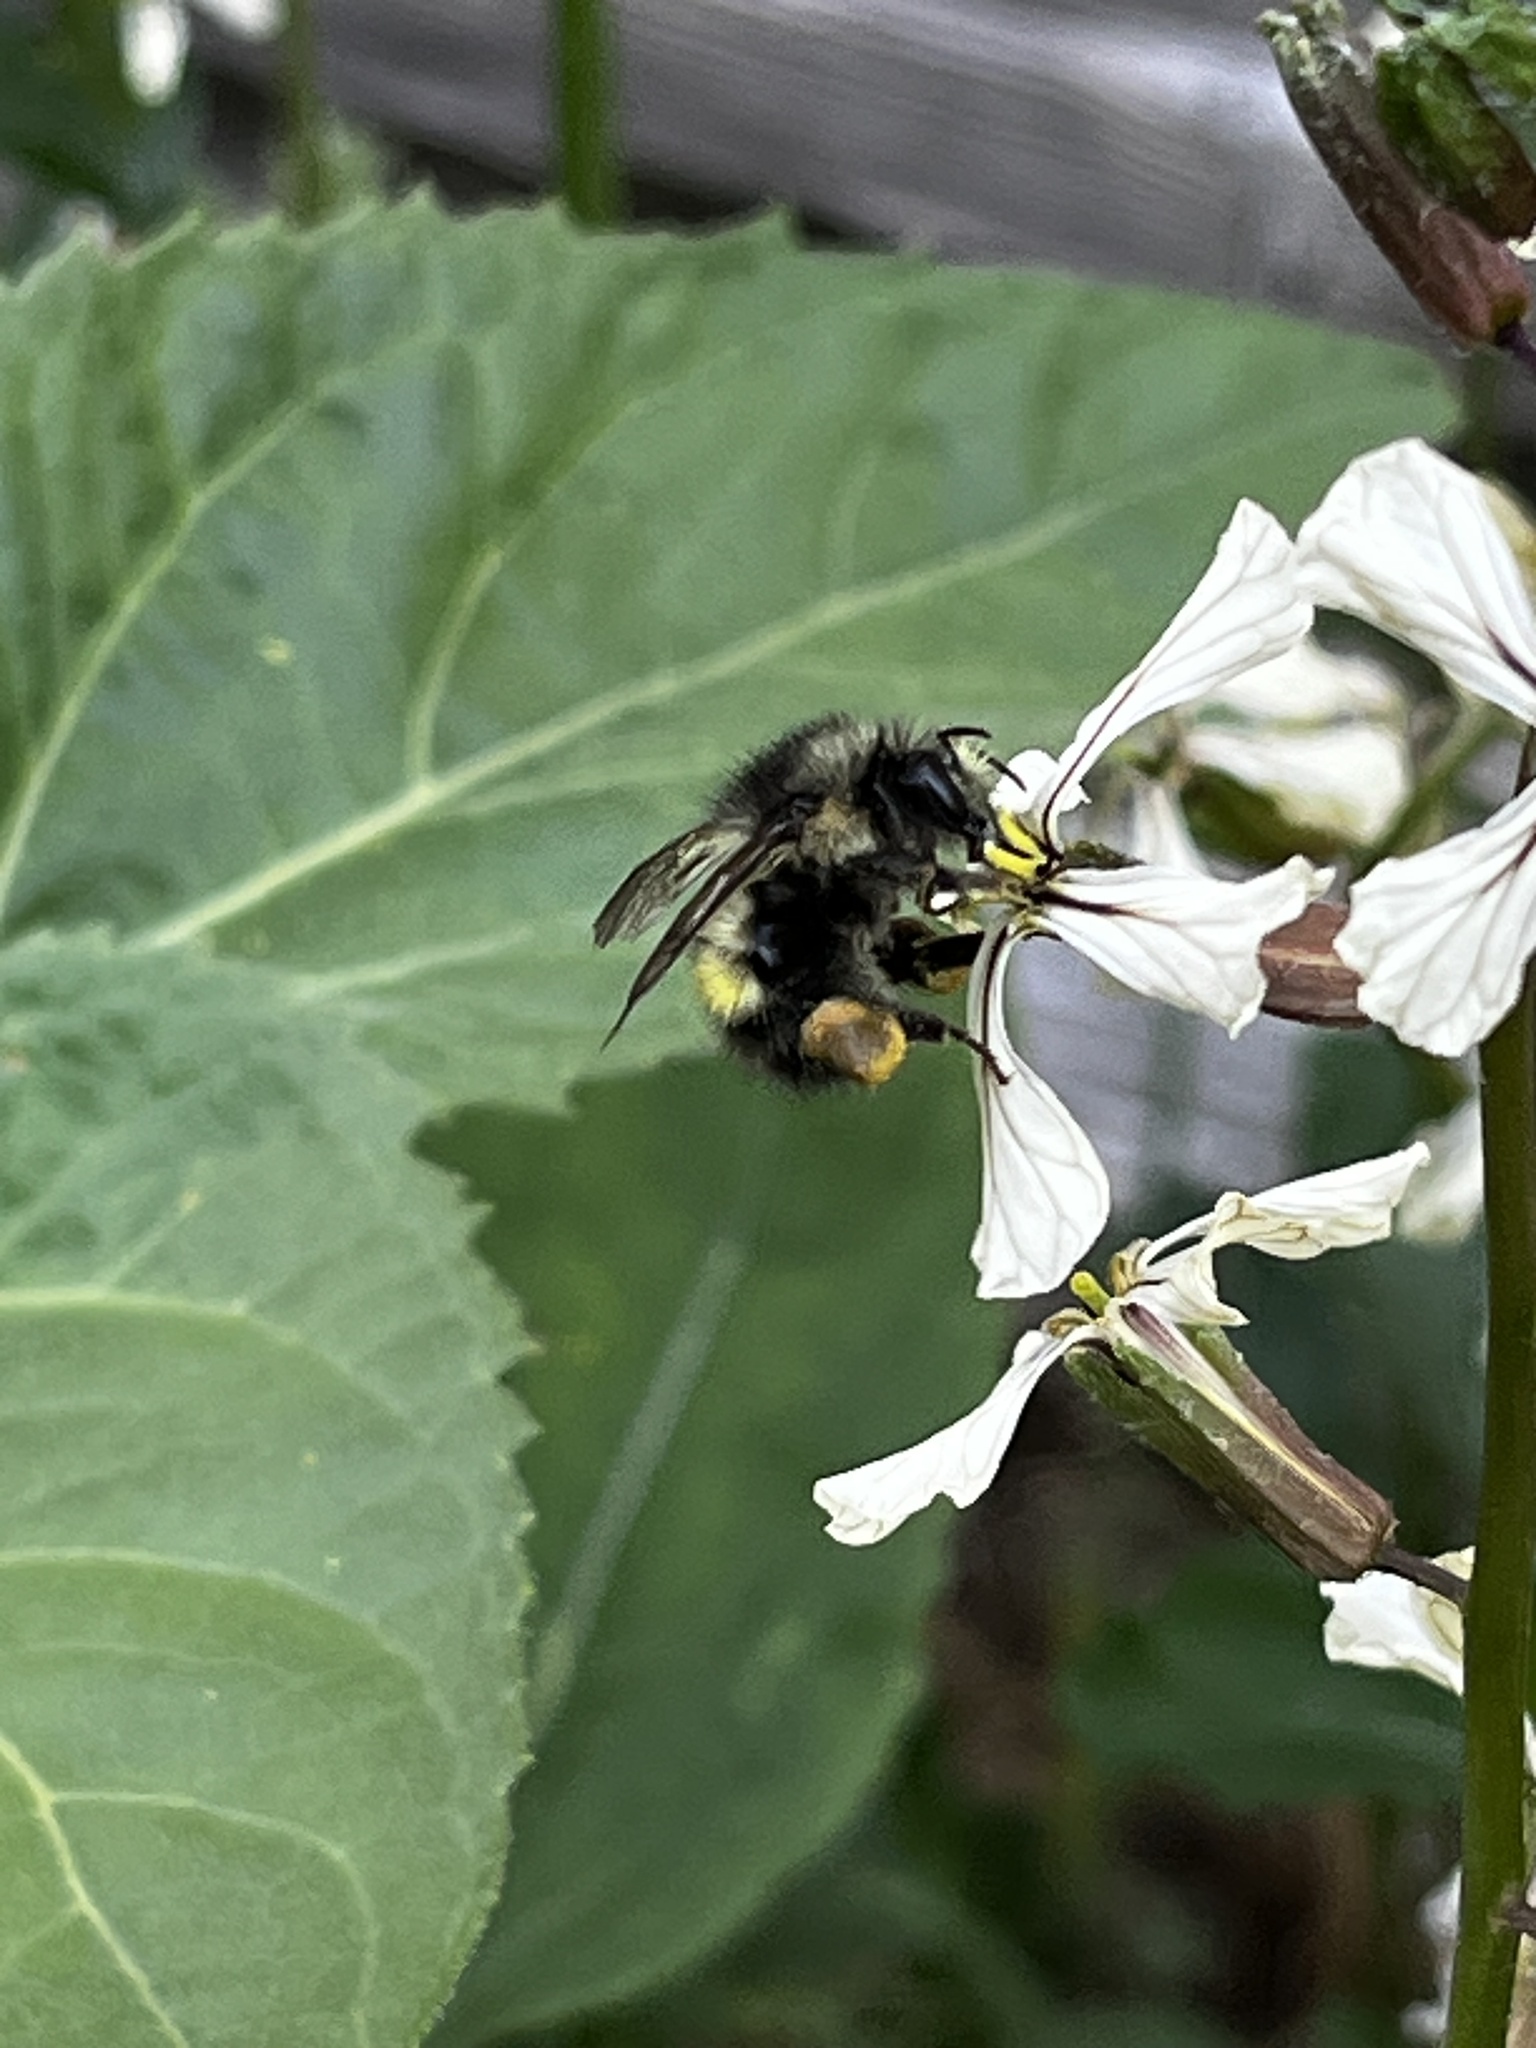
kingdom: Animalia
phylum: Arthropoda
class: Insecta
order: Hymenoptera
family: Apidae
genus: Bombus
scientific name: Bombus flavifrons
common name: Yellow head bumble bee
